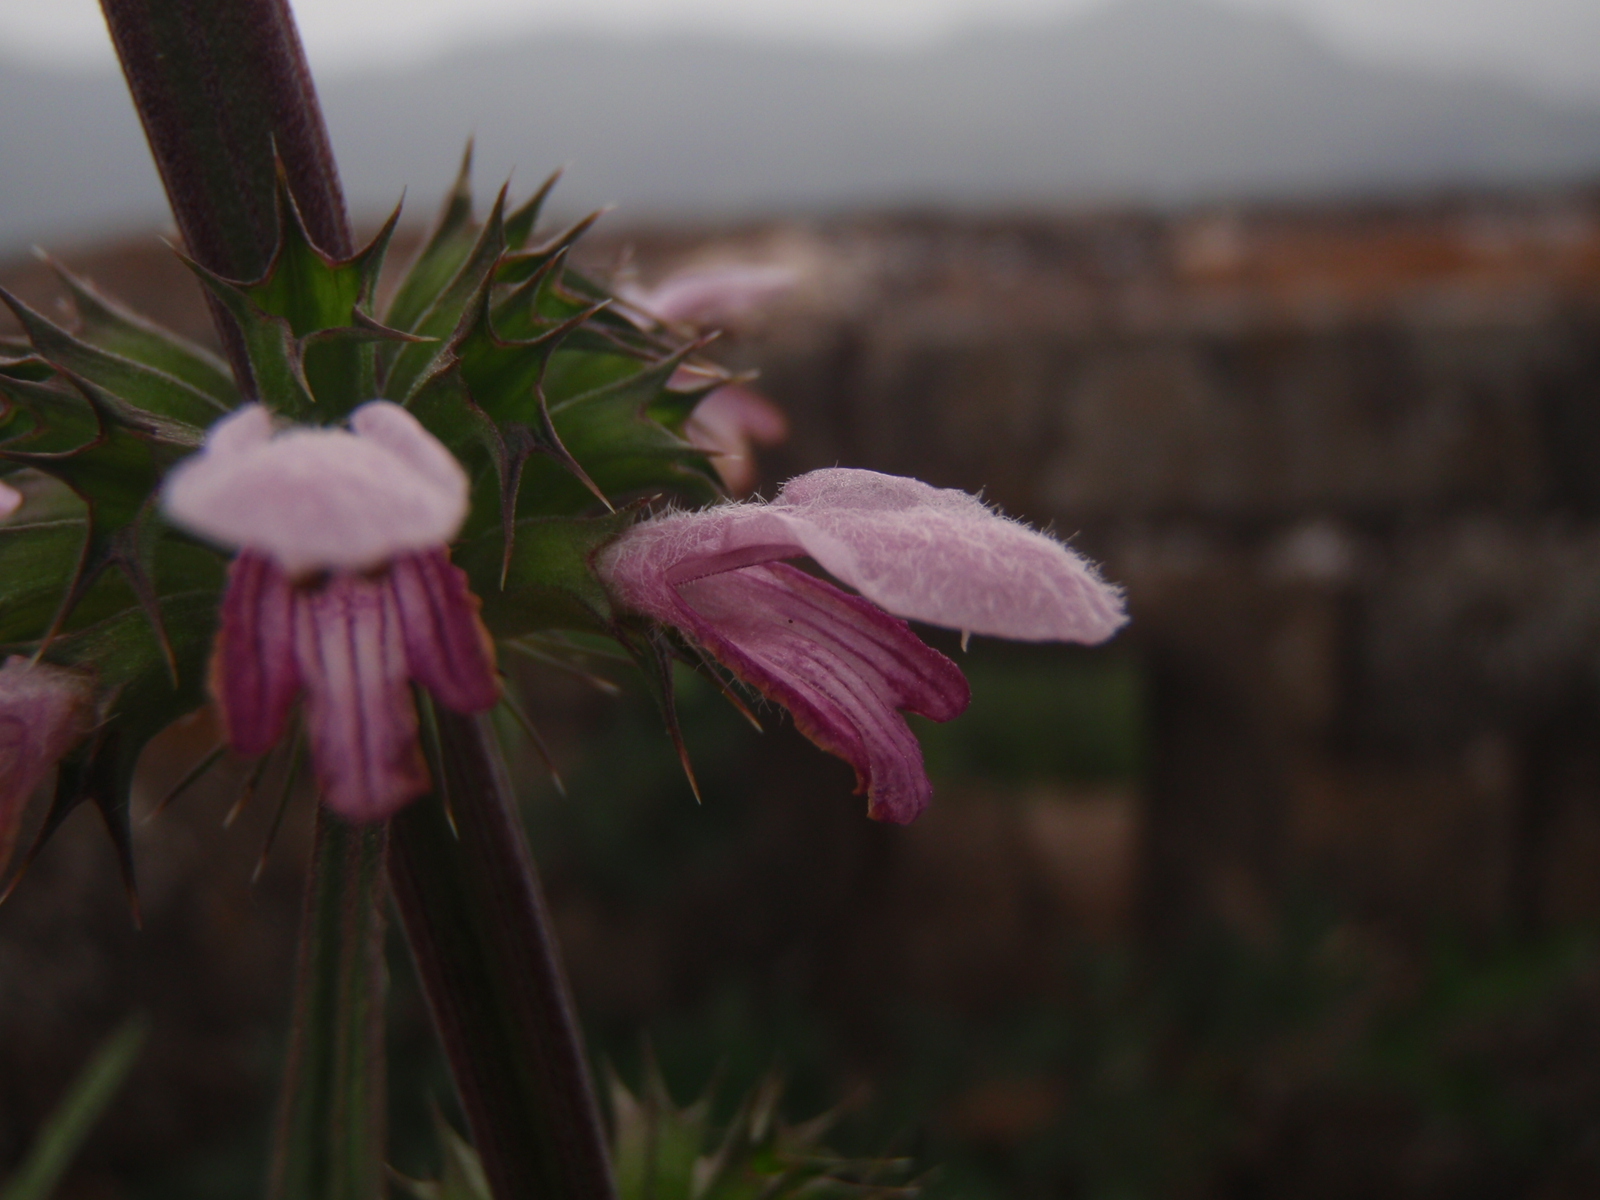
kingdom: Plantae
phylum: Tracheophyta
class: Magnoliopsida
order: Lamiales
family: Lamiaceae
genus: Leonurus
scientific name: Leonurus japonicus
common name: Honeyweed
